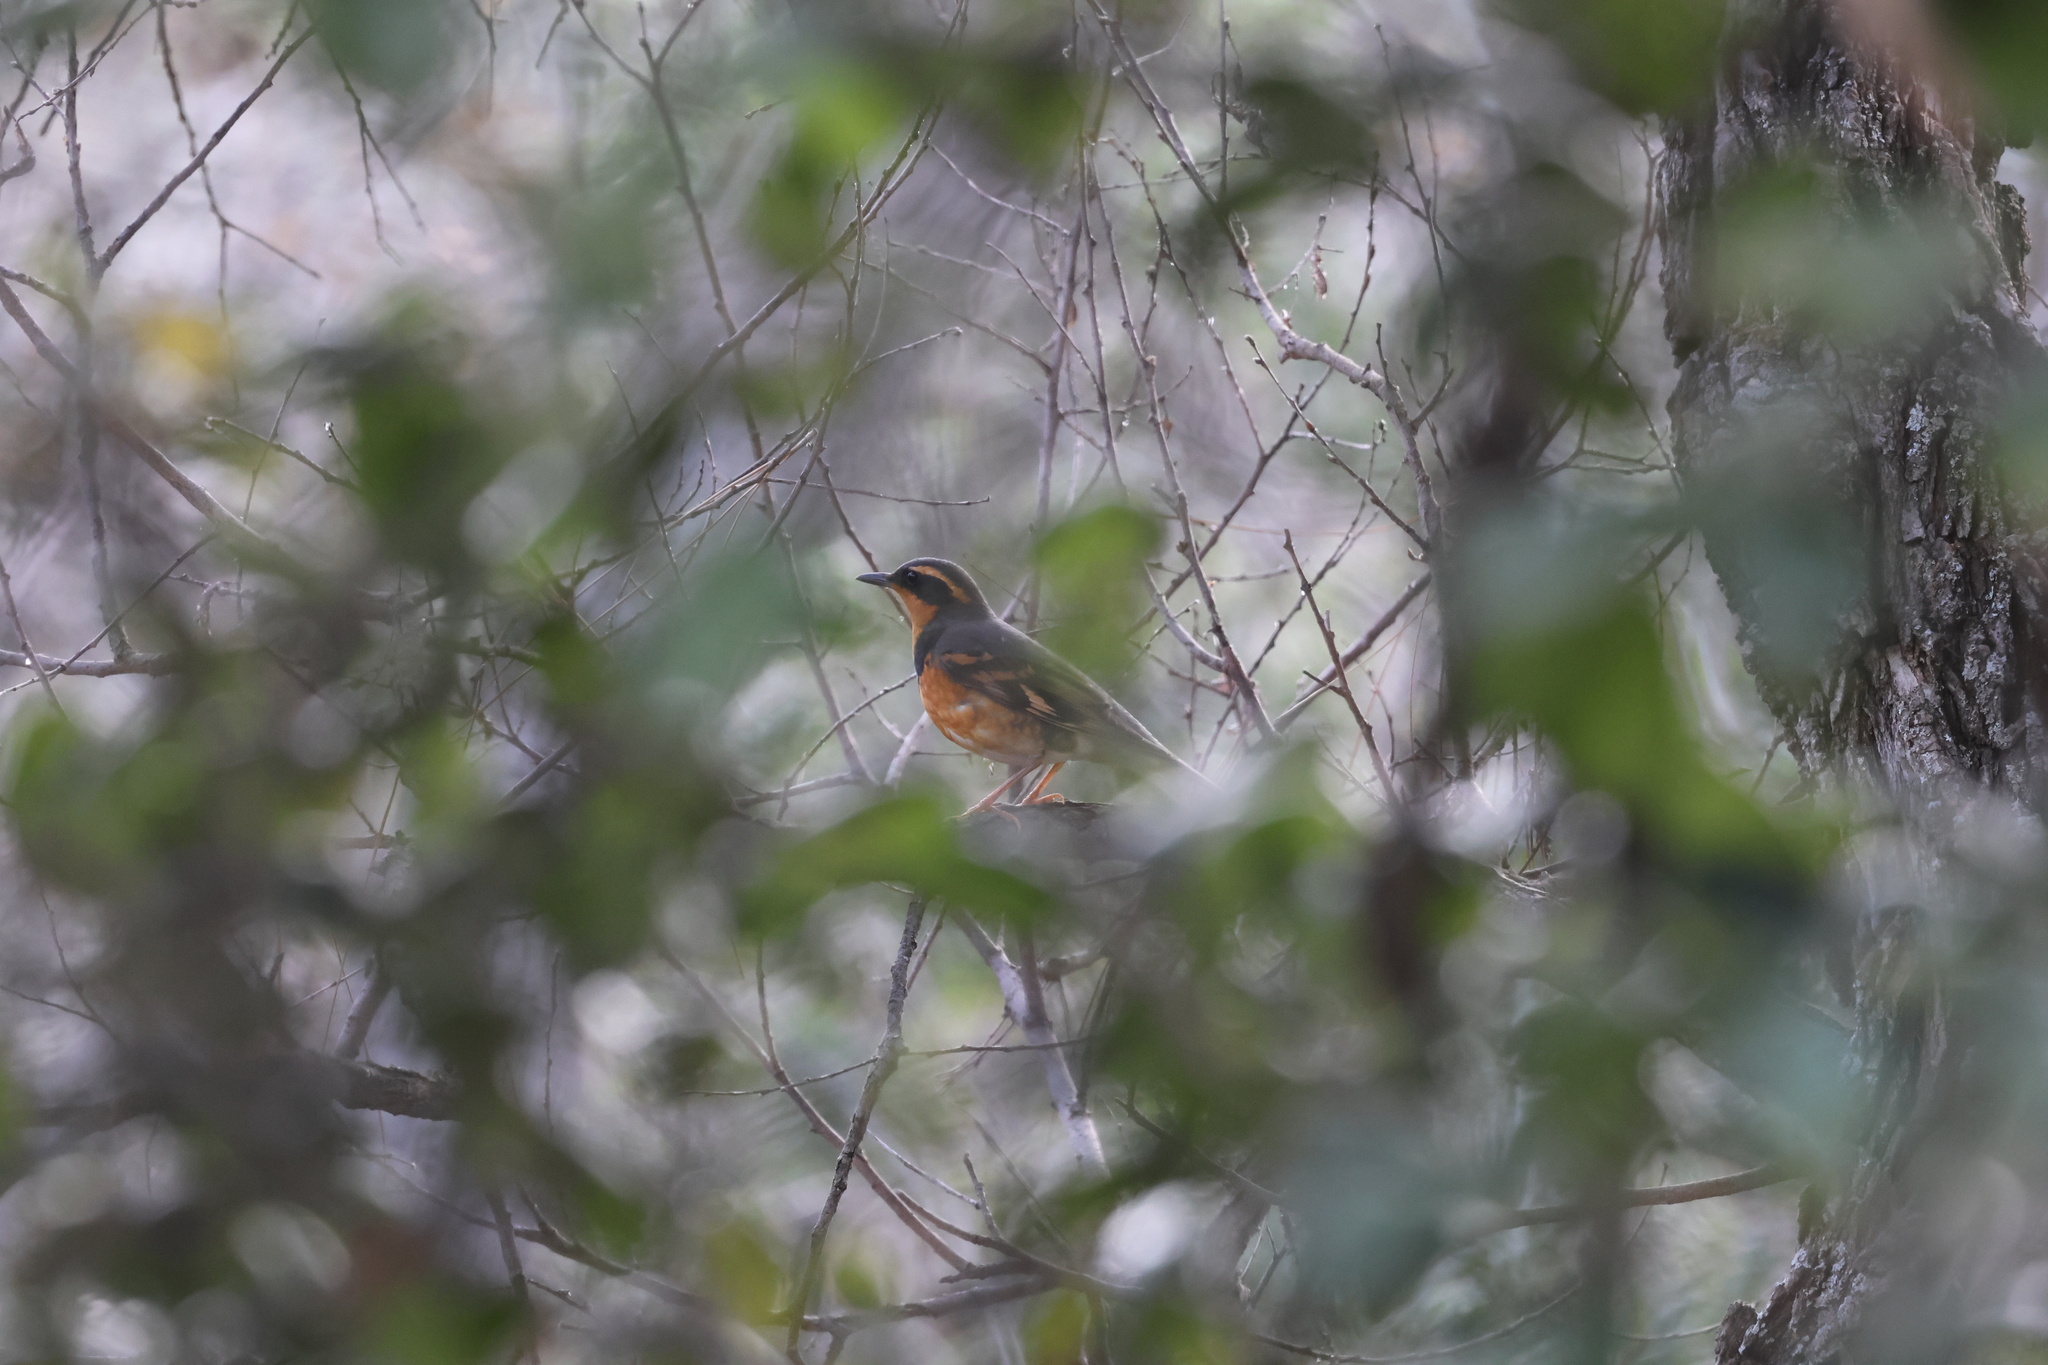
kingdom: Animalia
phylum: Chordata
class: Aves
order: Passeriformes
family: Turdidae
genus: Ixoreus
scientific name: Ixoreus naevius
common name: Varied thrush
